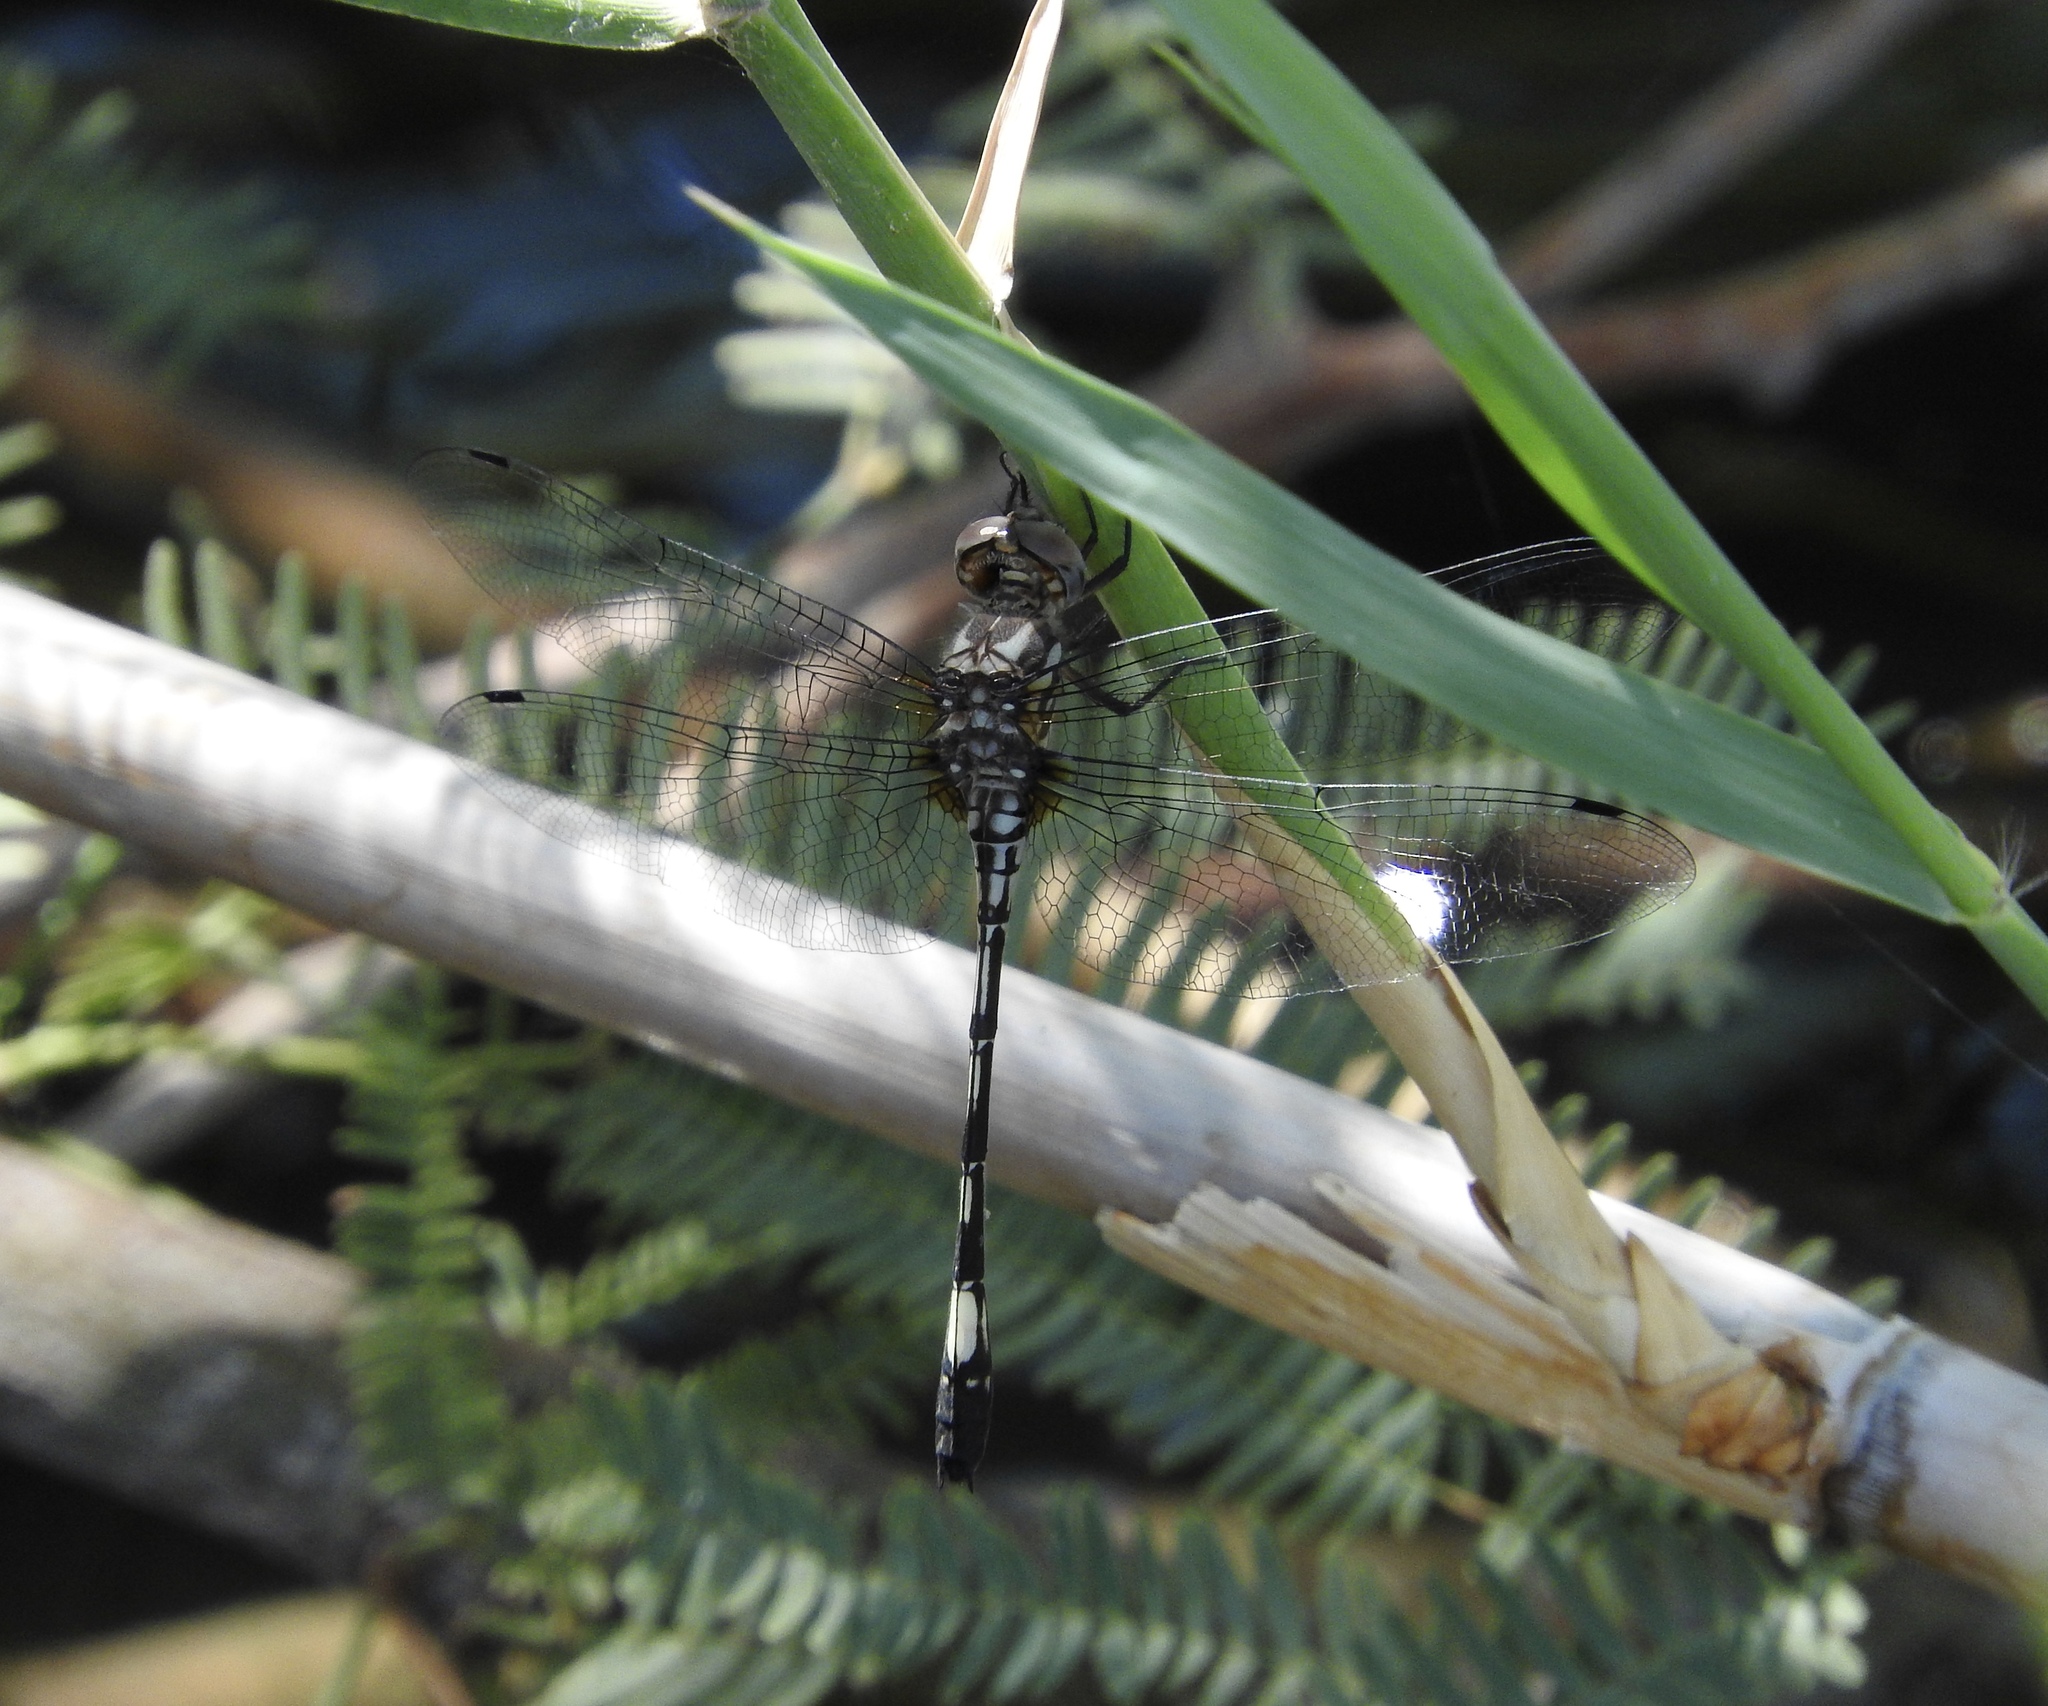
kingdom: Animalia
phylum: Arthropoda
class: Insecta
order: Odonata
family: Libellulidae
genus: Brechmorhoga
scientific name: Brechmorhoga mendax
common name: Pale-faced clubskimmer
